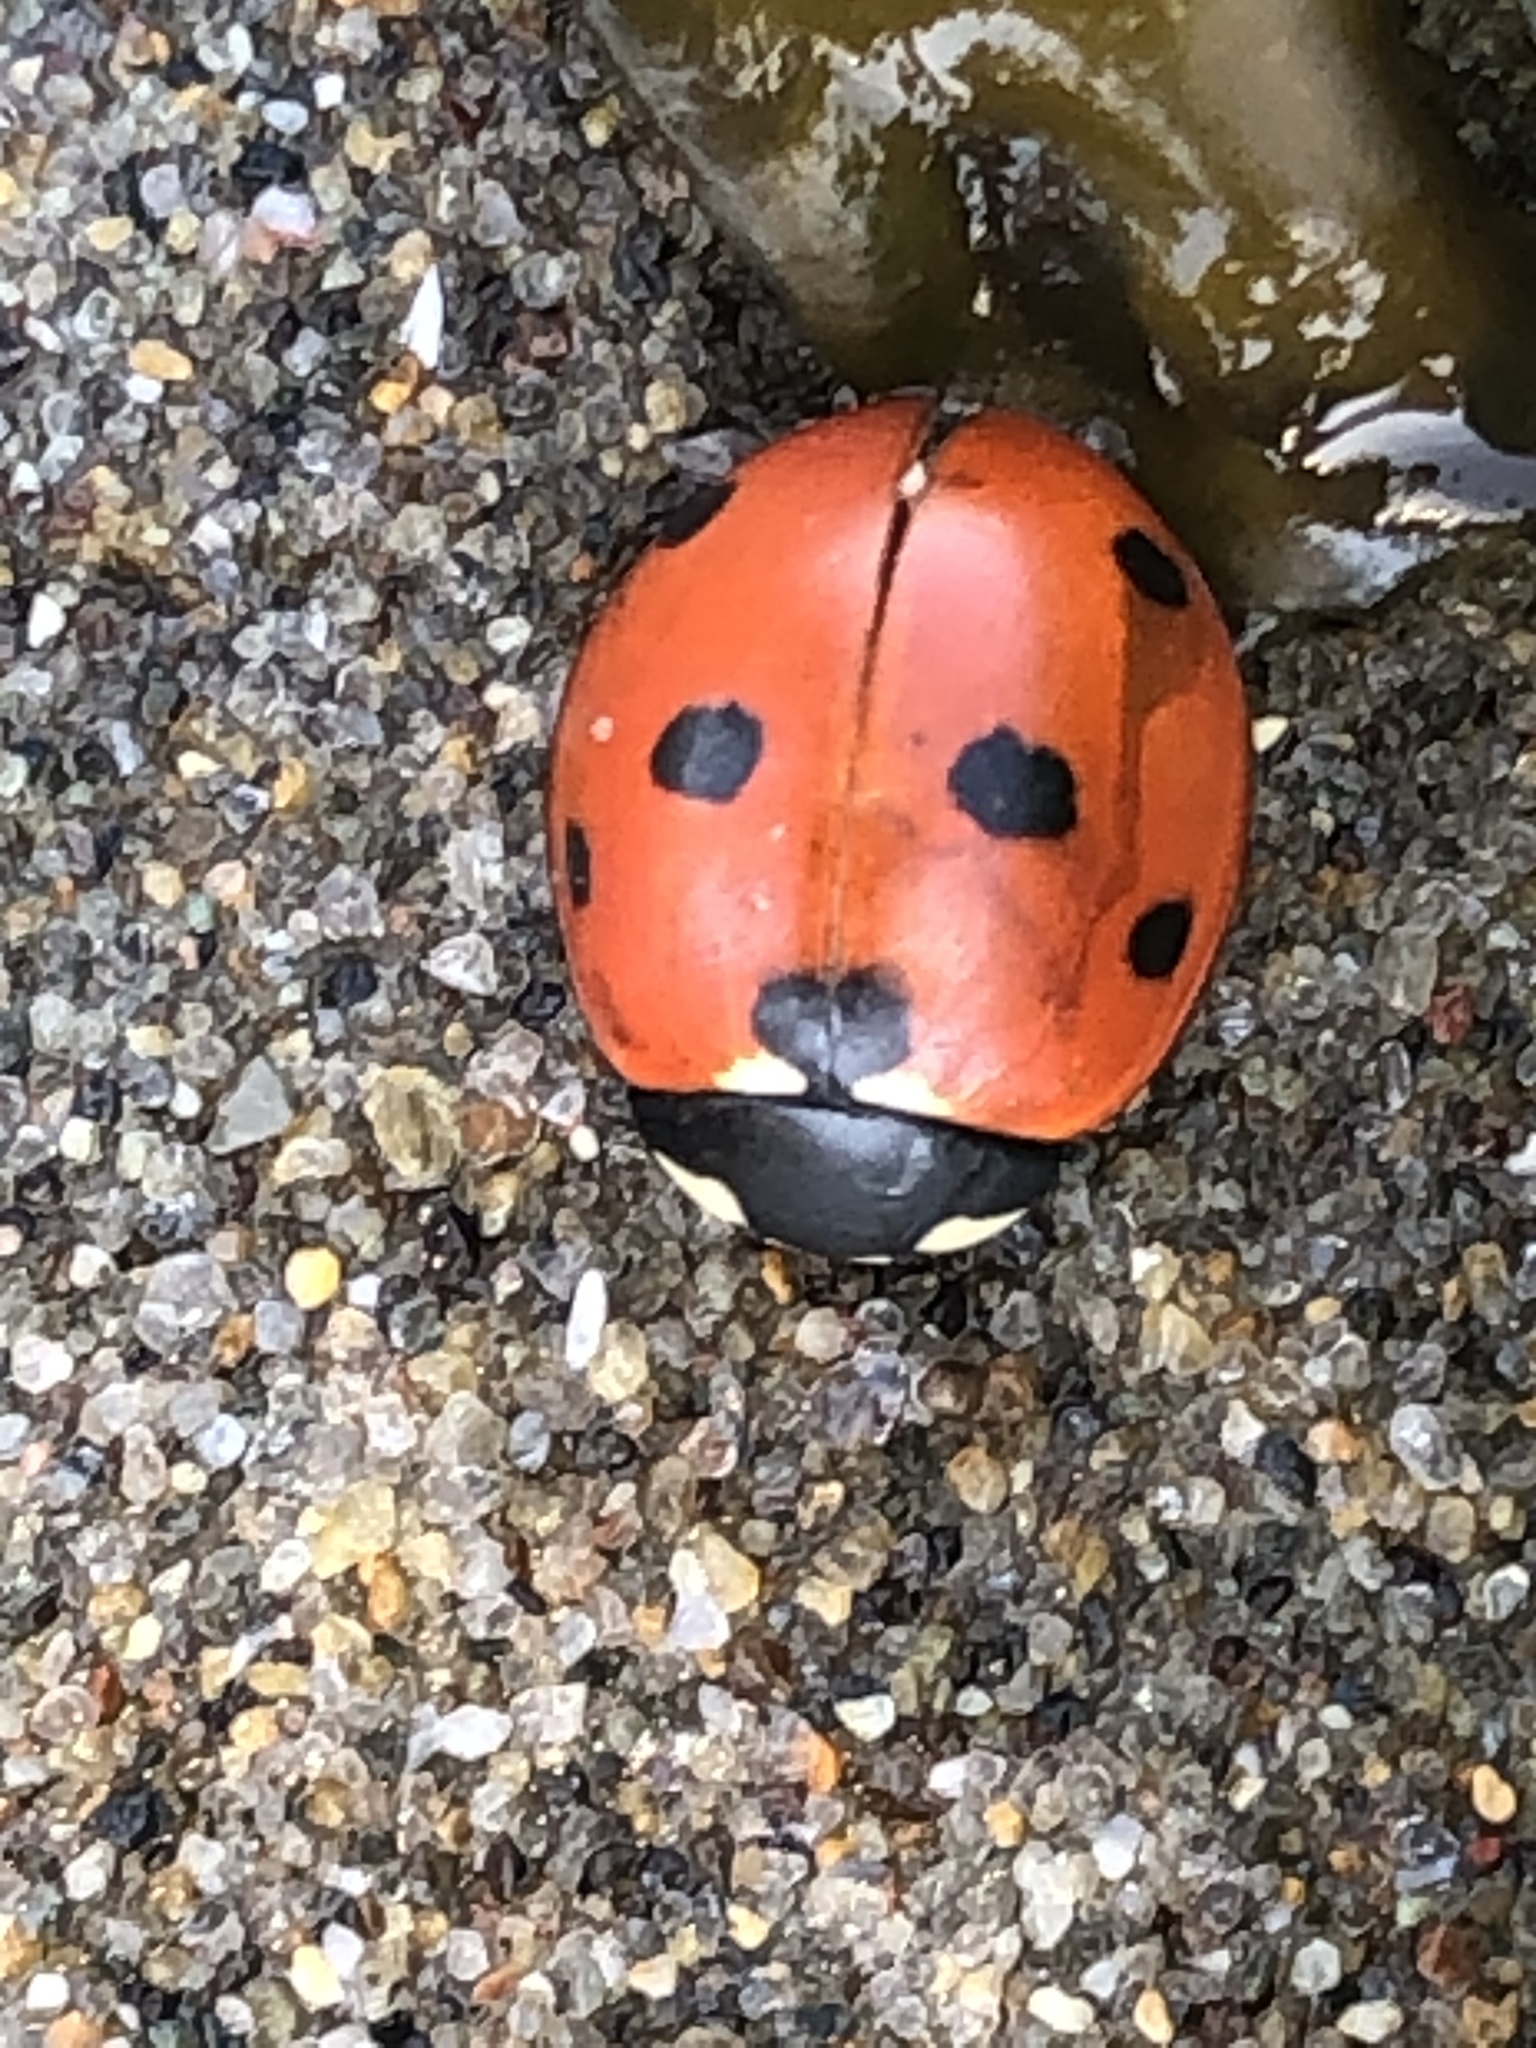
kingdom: Animalia
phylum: Arthropoda
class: Insecta
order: Coleoptera
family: Coccinellidae
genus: Coccinella
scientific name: Coccinella septempunctata
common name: Sevenspotted lady beetle
